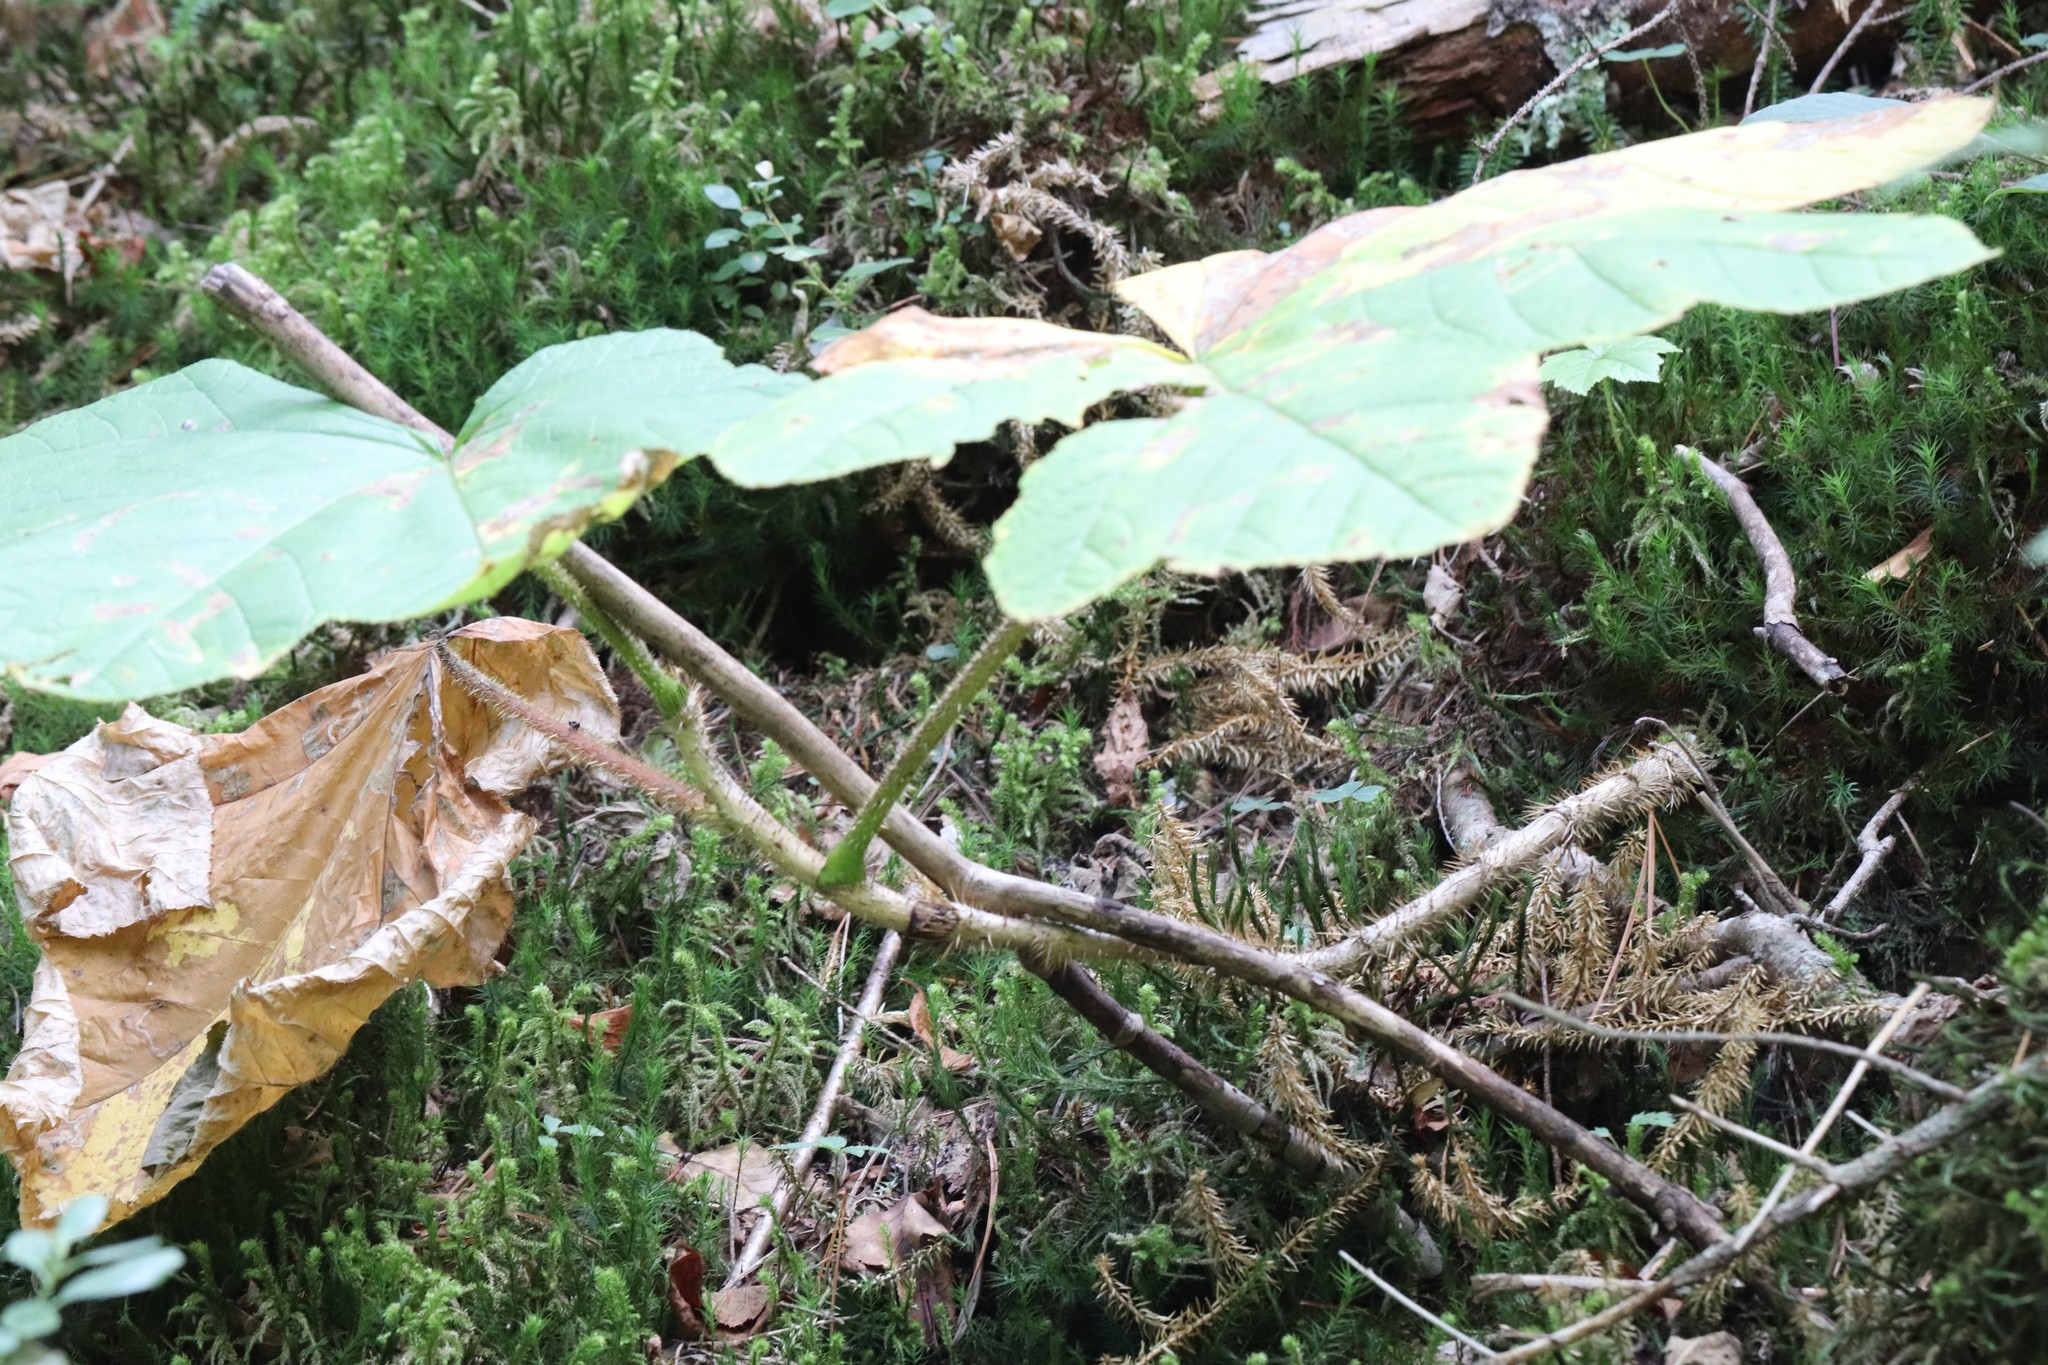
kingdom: Plantae
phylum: Tracheophyta
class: Magnoliopsida
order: Apiales
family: Araliaceae
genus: Oplopanax
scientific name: Oplopanax elatus
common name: Japanese devil's-club
